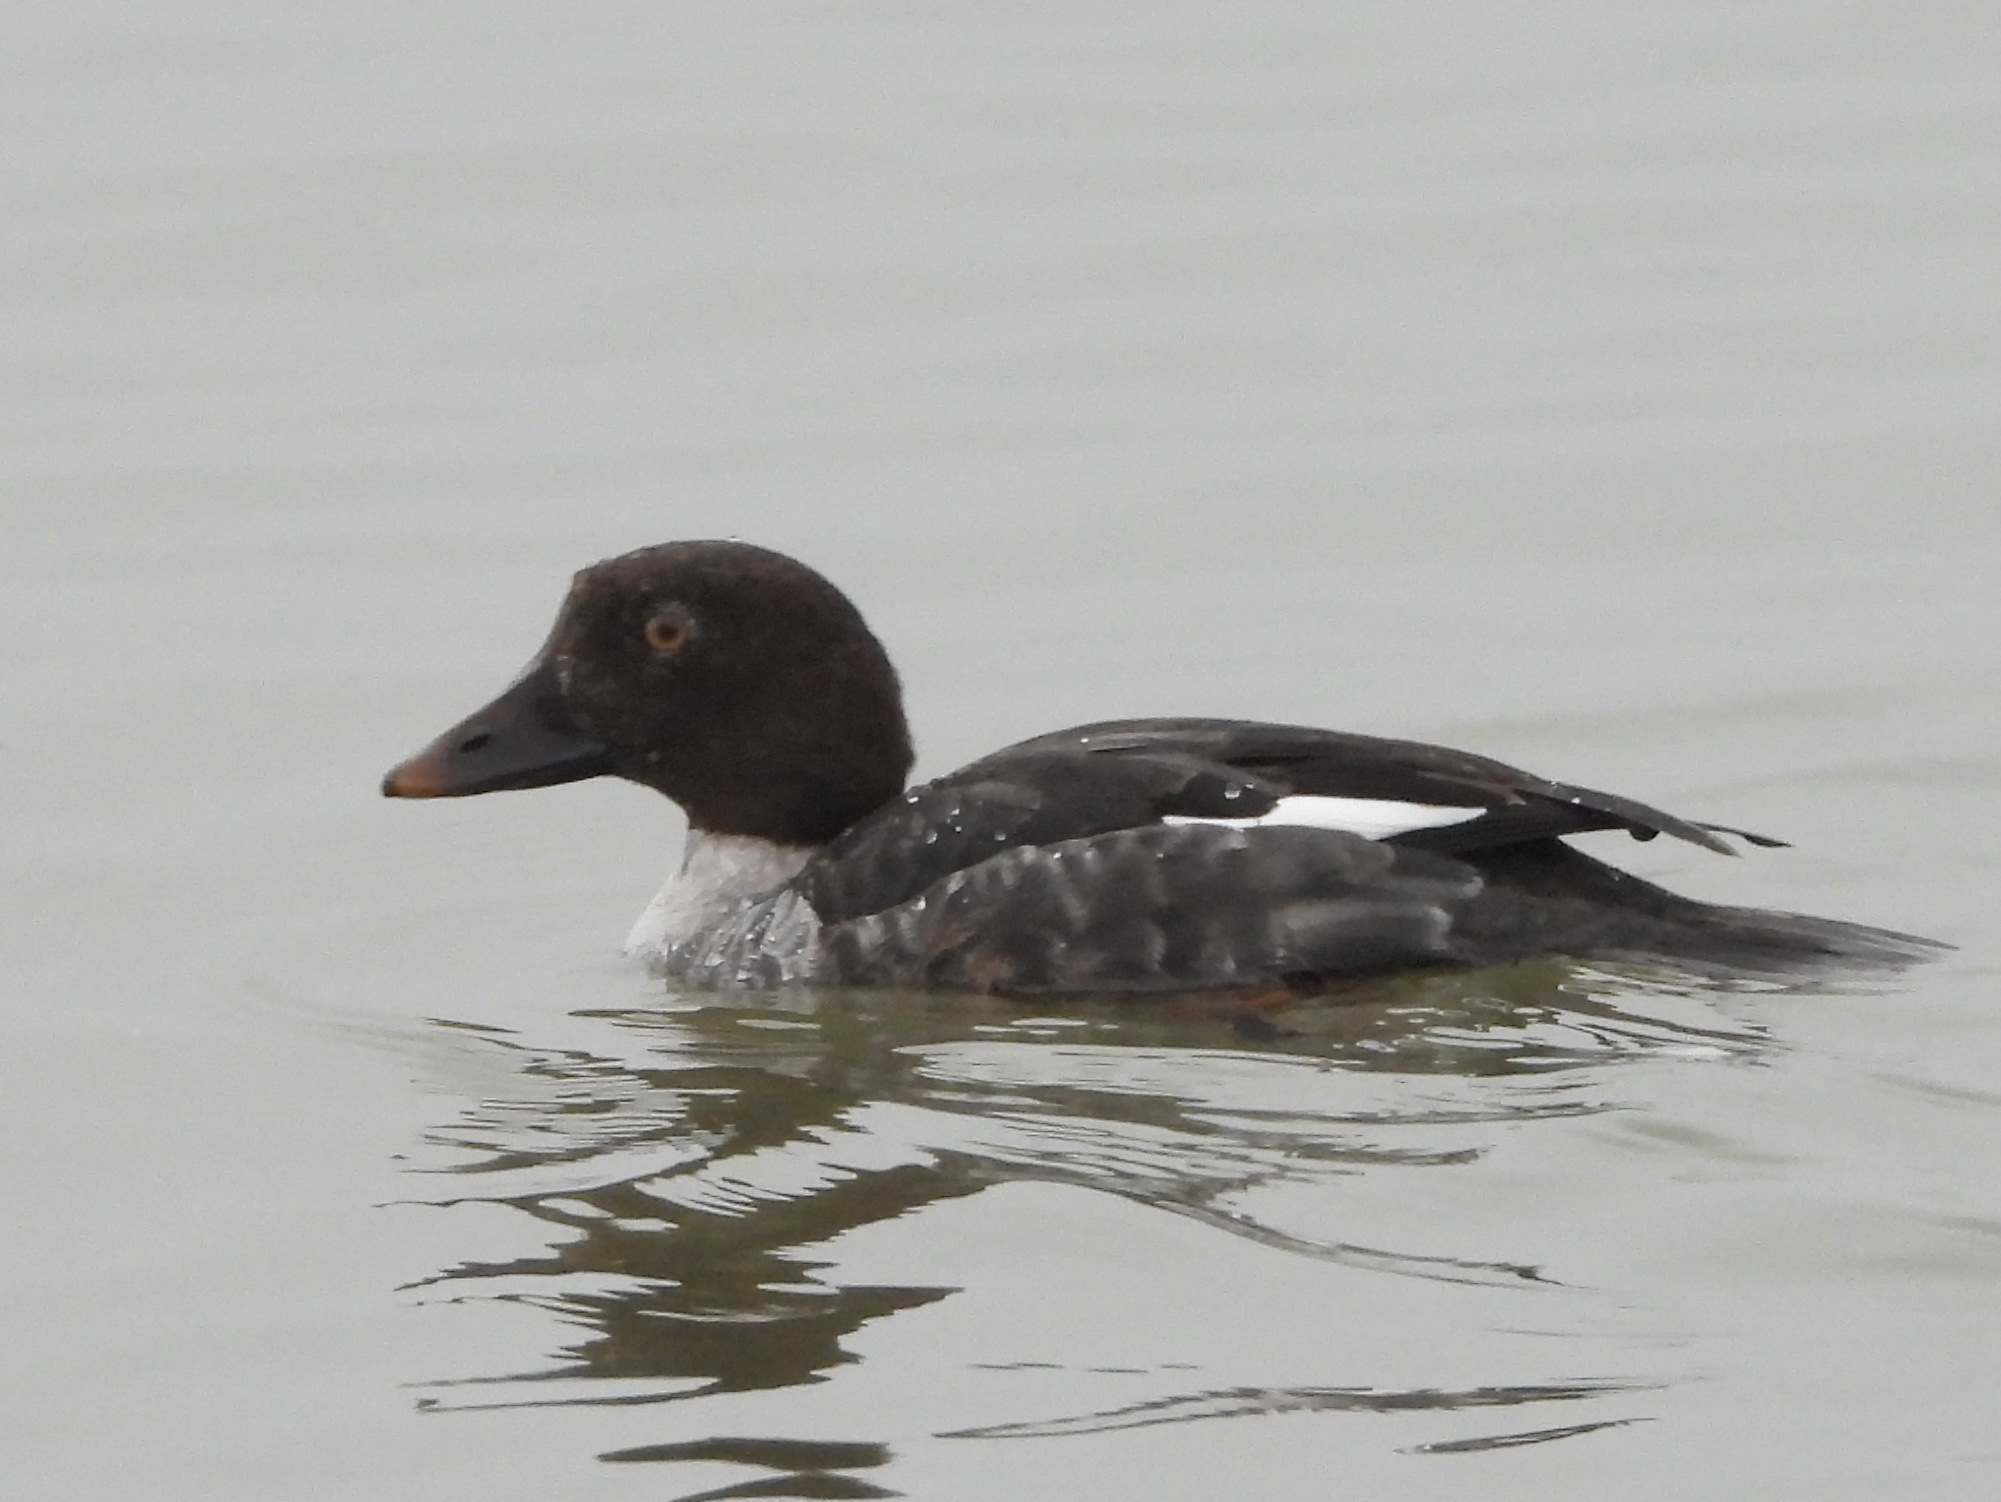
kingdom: Animalia
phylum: Chordata
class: Aves
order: Anseriformes
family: Anatidae
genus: Bucephala
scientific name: Bucephala clangula
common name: Common goldeneye
